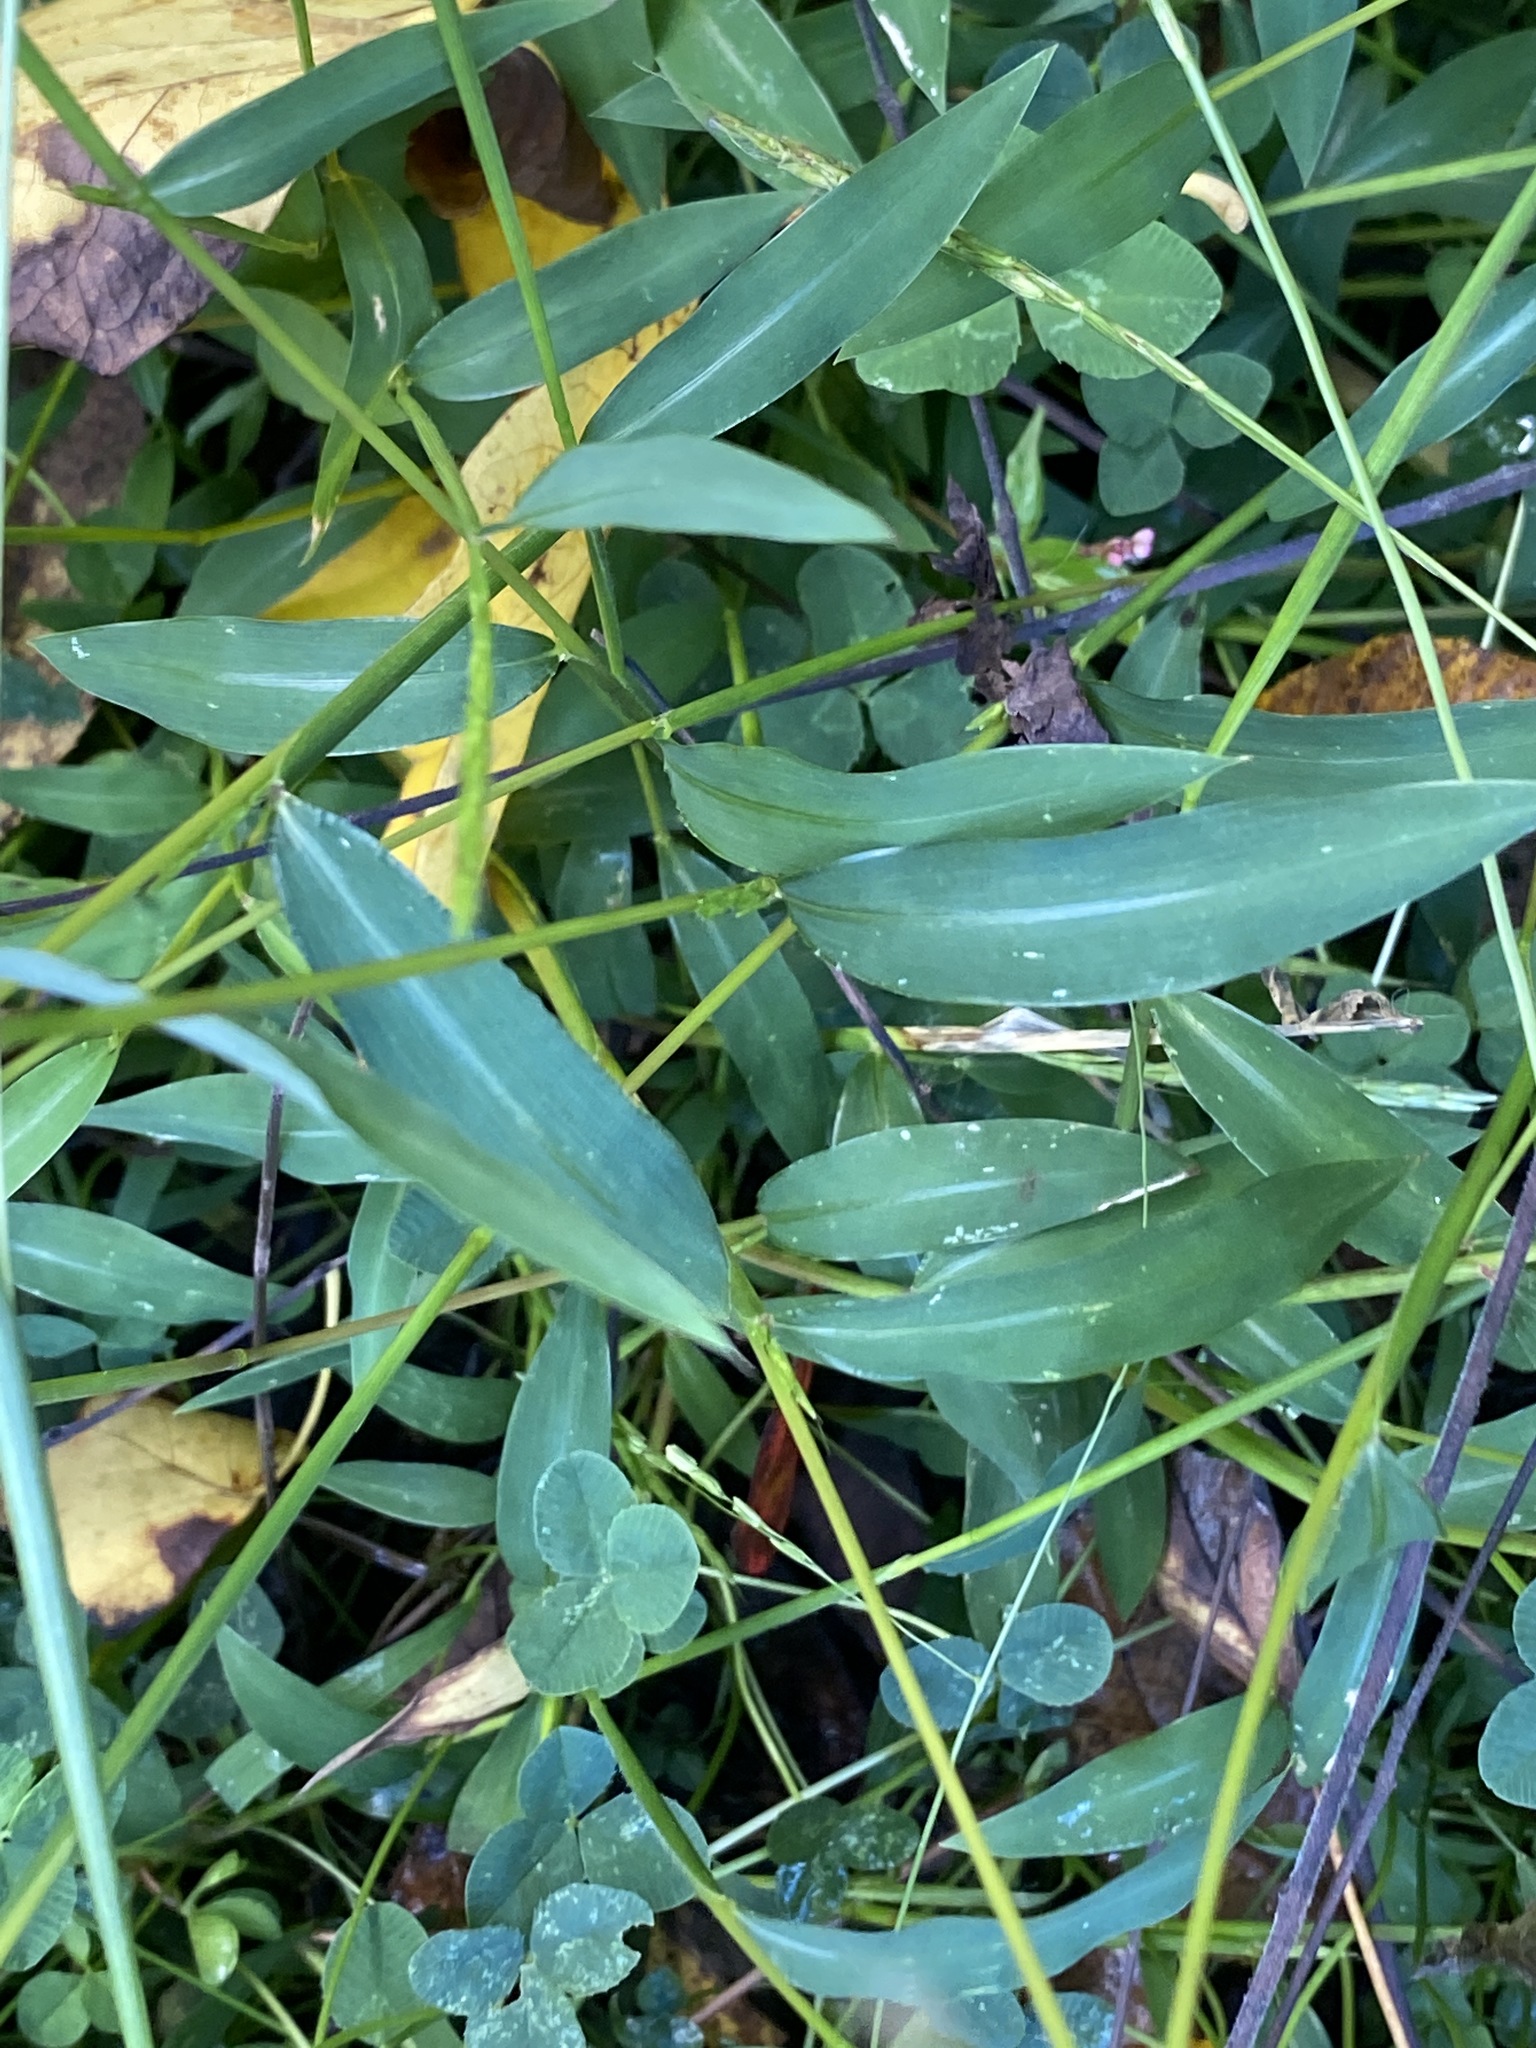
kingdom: Plantae
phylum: Tracheophyta
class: Liliopsida
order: Poales
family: Poaceae
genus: Microstegium
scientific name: Microstegium vimineum
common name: Japanese stiltgrass
